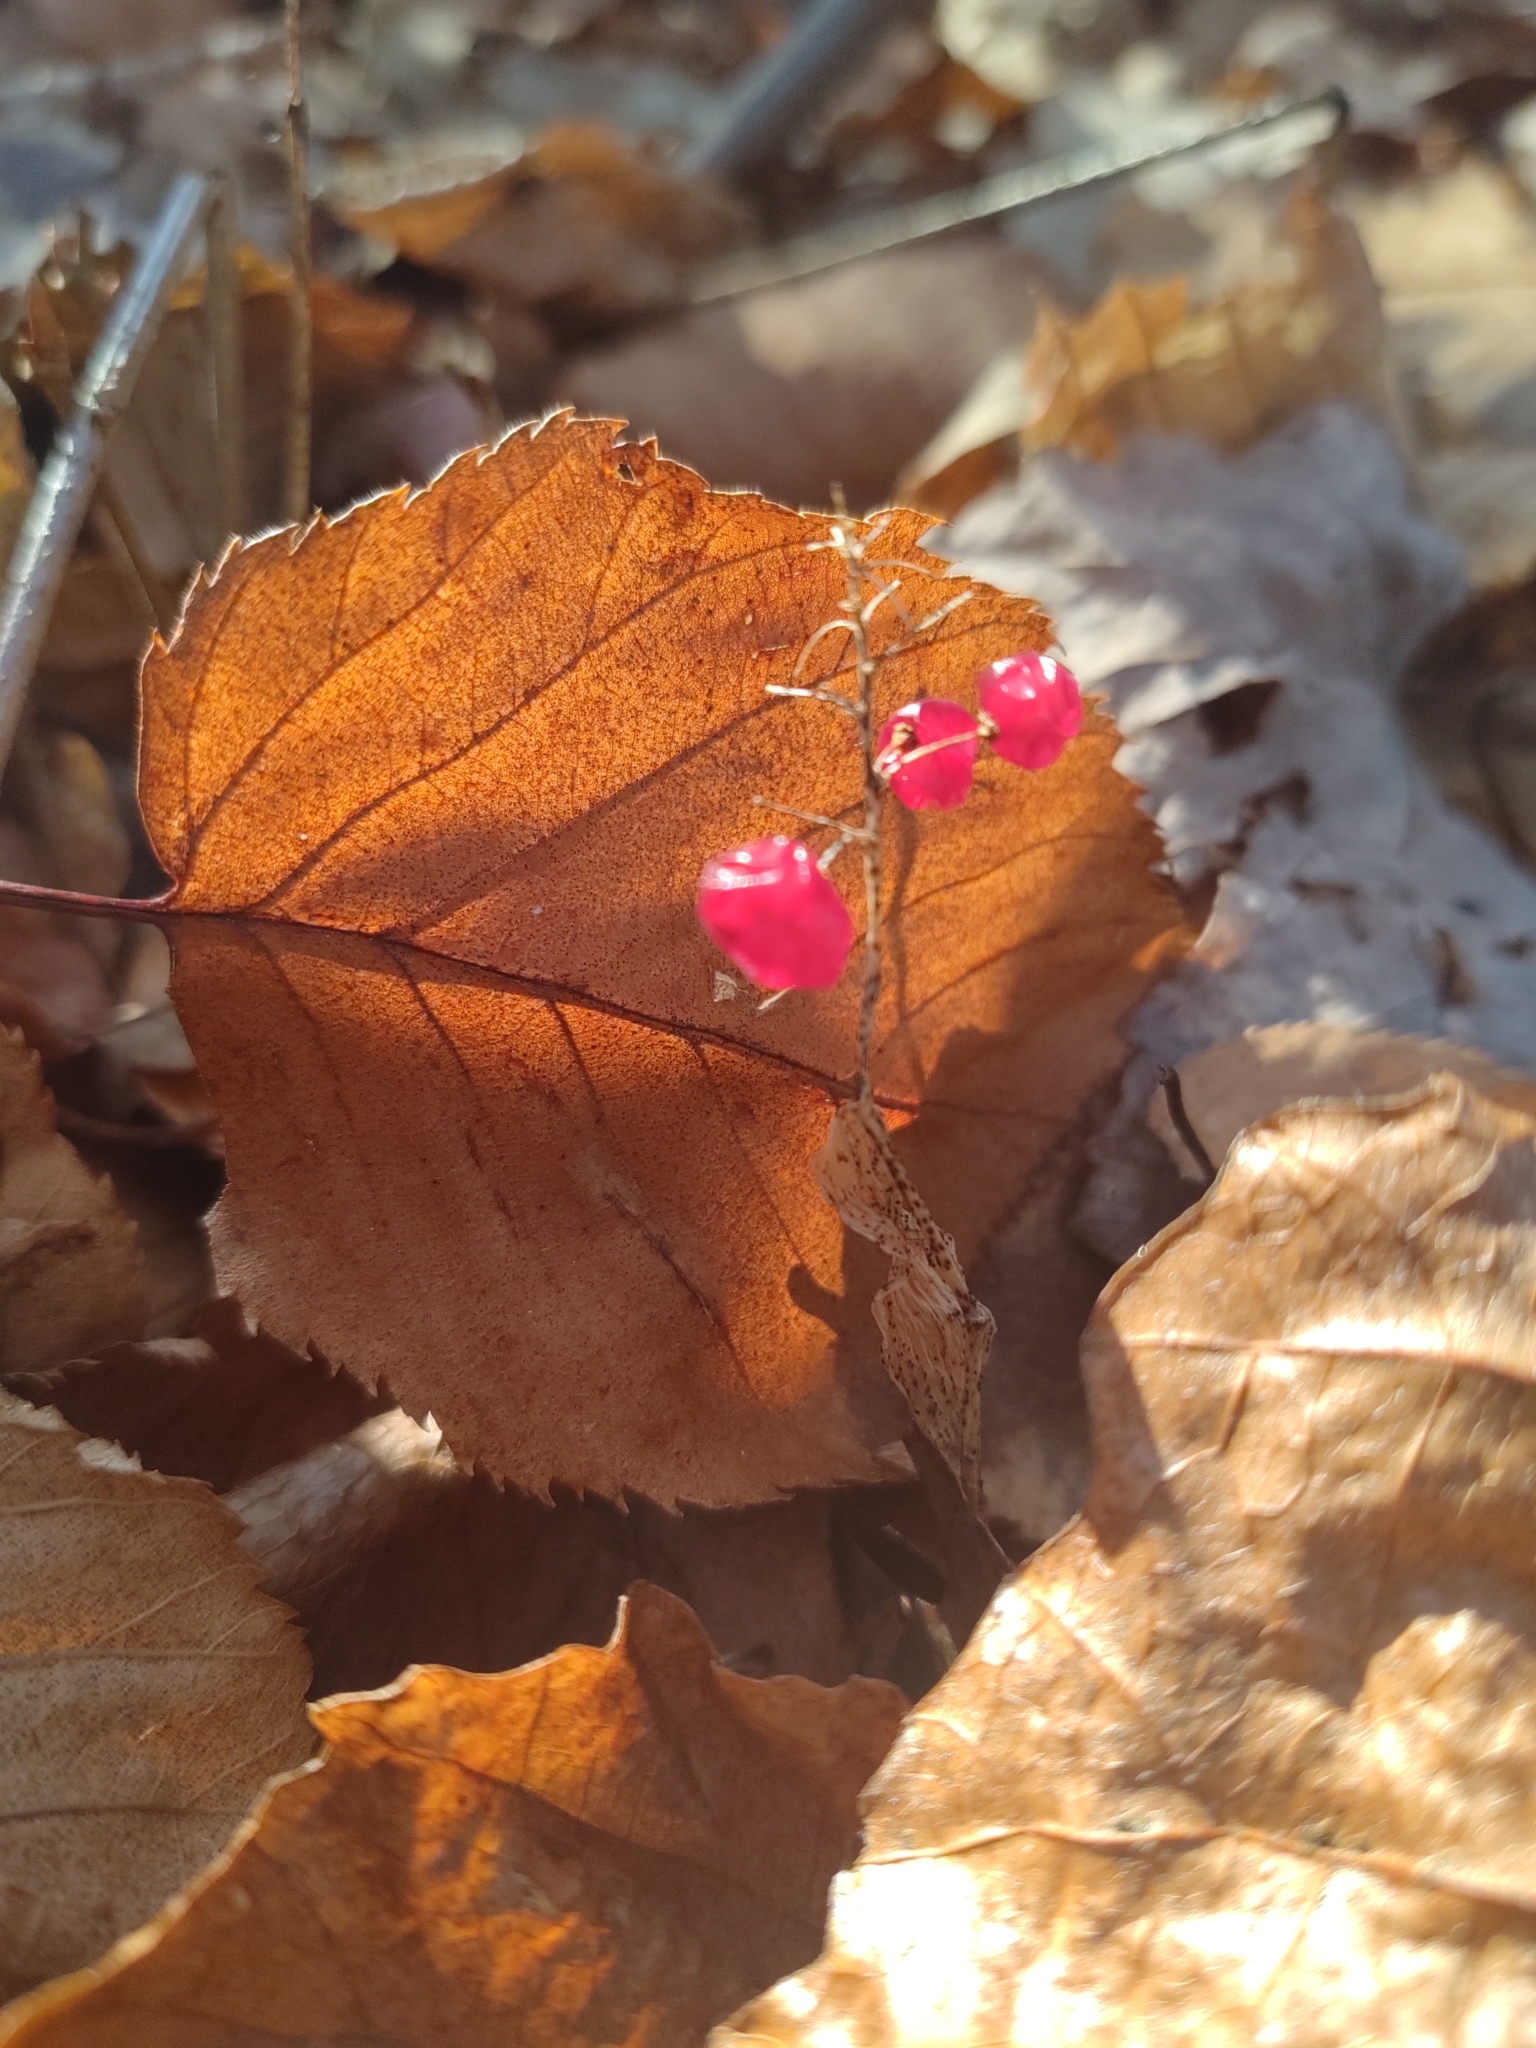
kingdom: Plantae
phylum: Tracheophyta
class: Liliopsida
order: Asparagales
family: Asparagaceae
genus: Maianthemum
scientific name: Maianthemum canadense
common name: False lily-of-the-valley
